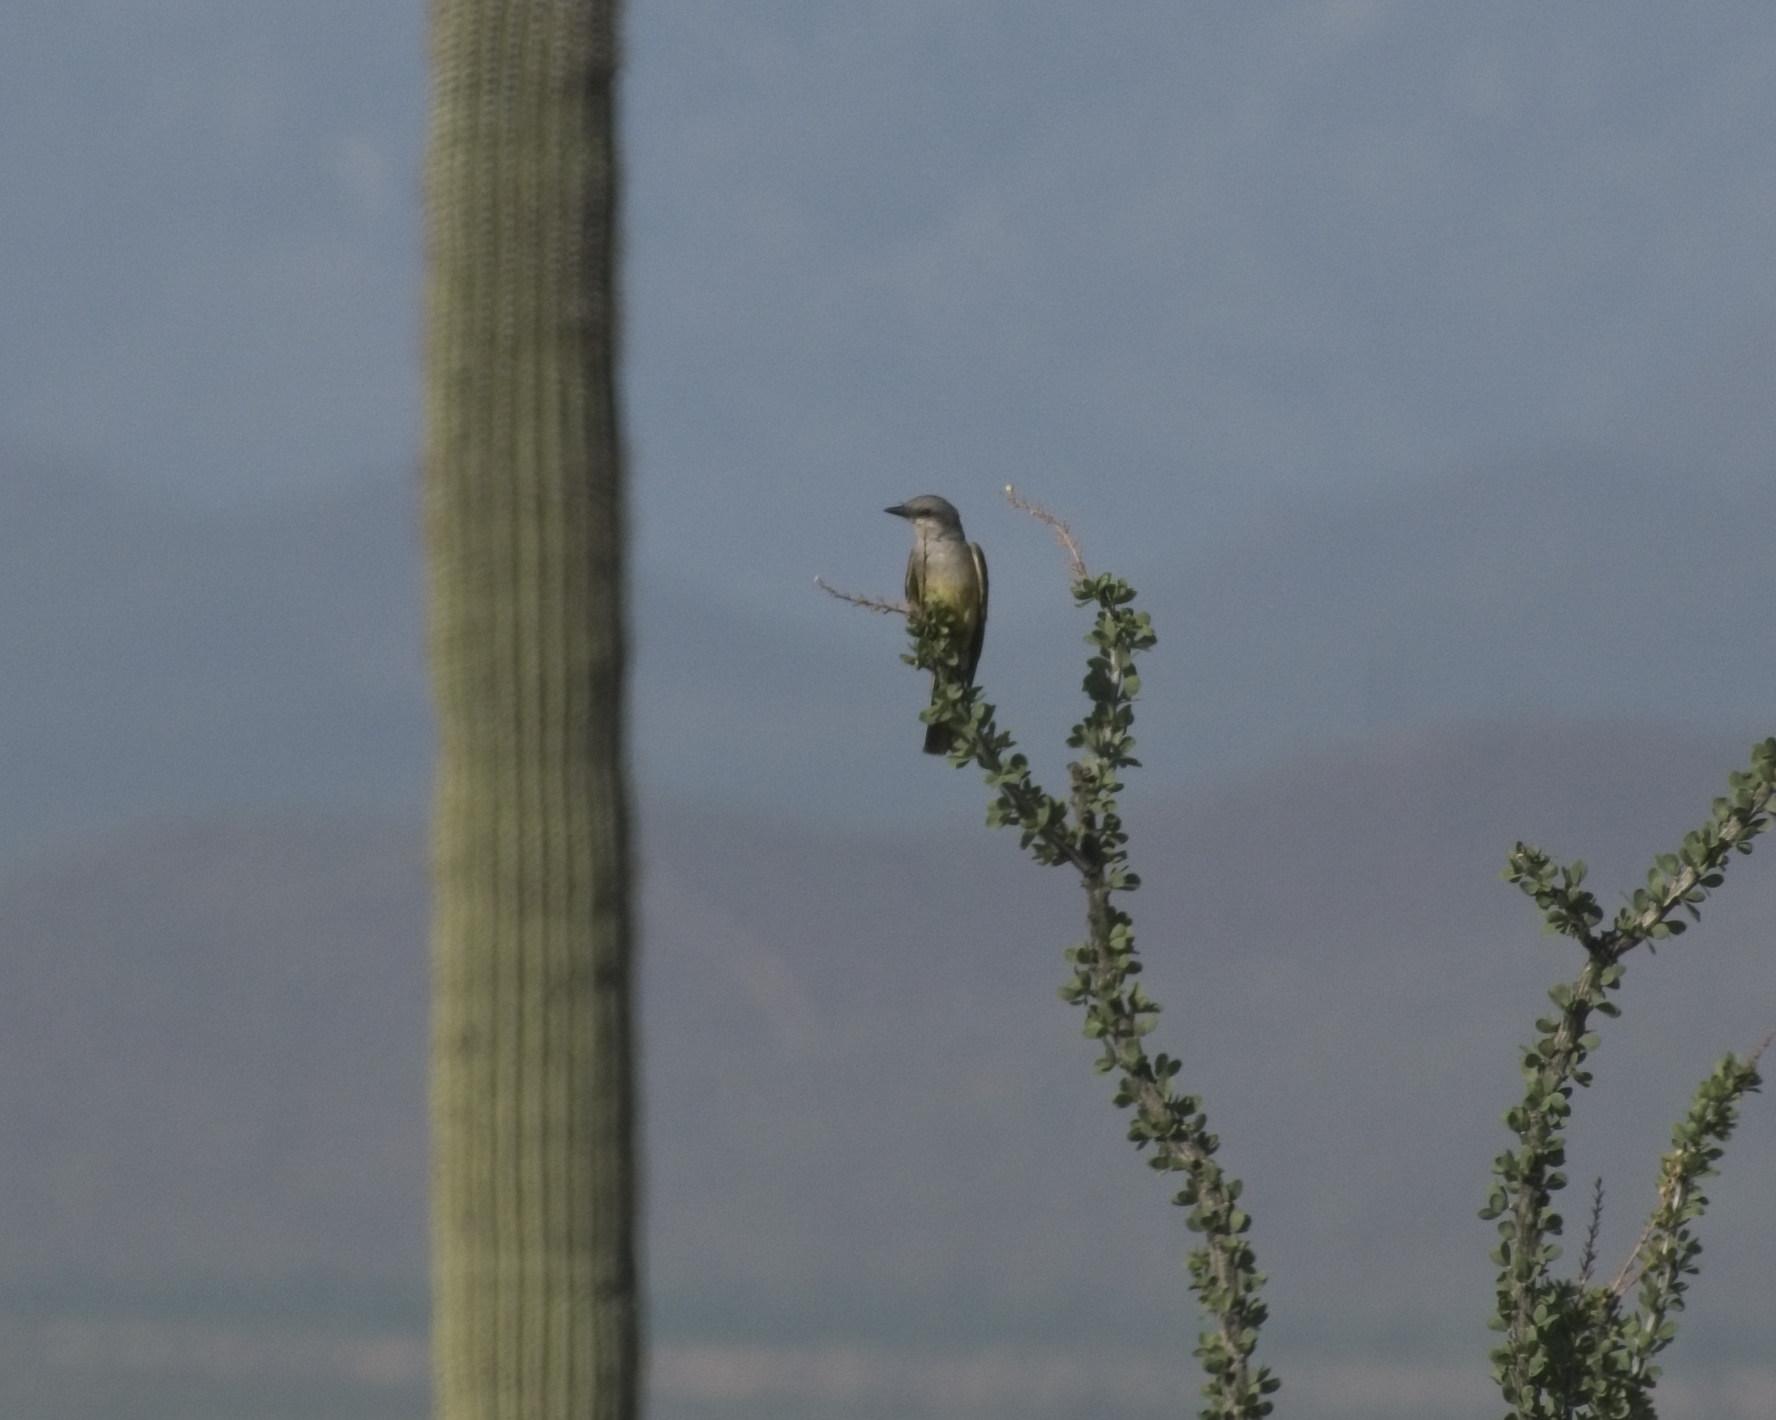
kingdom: Animalia
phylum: Chordata
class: Aves
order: Passeriformes
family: Tyrannidae
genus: Tyrannus
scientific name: Tyrannus verticalis
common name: Western kingbird
